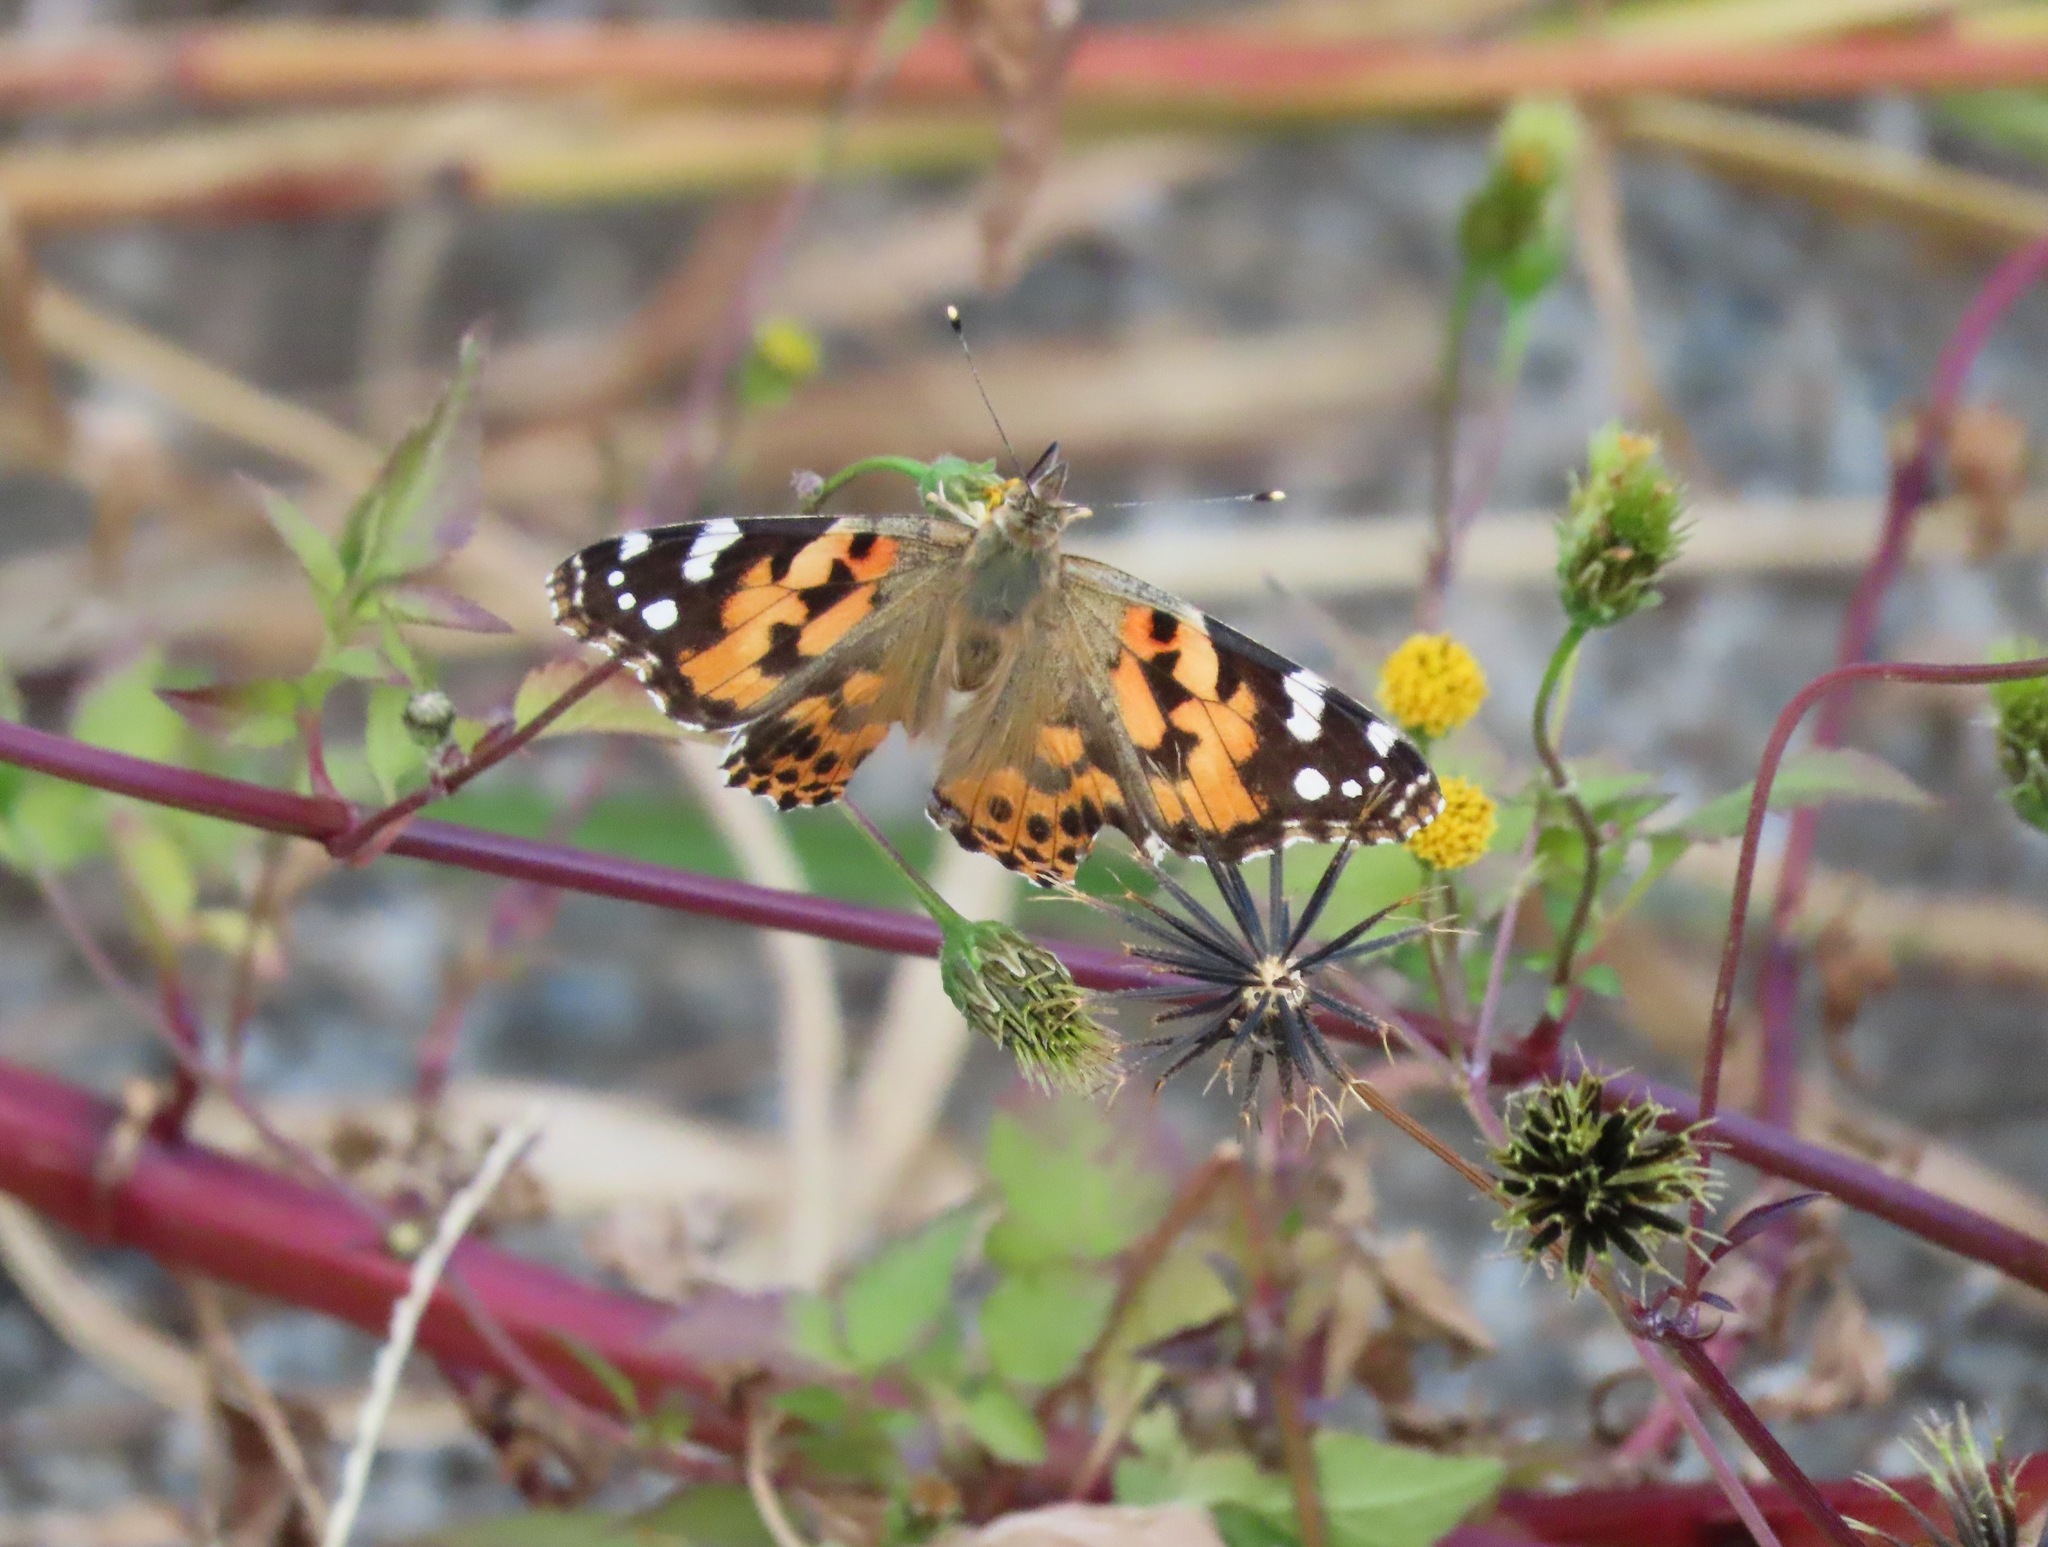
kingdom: Animalia
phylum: Arthropoda
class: Insecta
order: Lepidoptera
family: Nymphalidae
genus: Vanessa
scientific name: Vanessa cardui
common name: Painted lady
